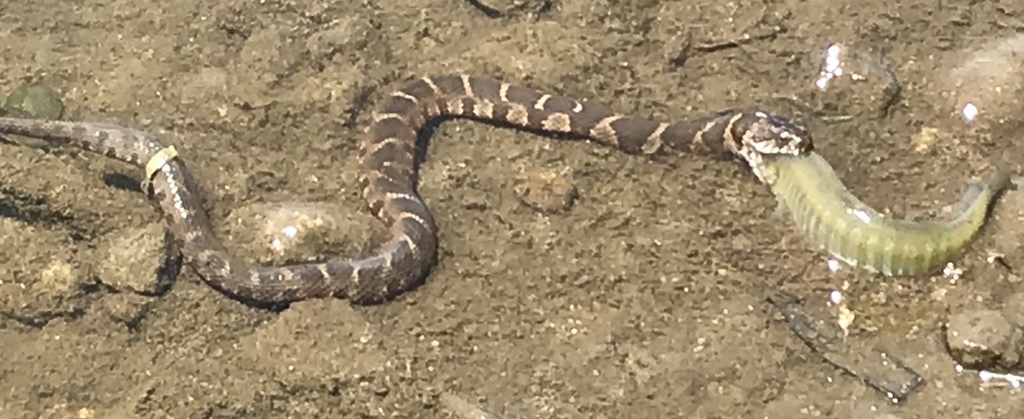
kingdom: Animalia
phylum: Chordata
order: Cyprinodontiformes
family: Fundulidae
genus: Fundulus
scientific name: Fundulus diaphanus
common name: Banded killifish
